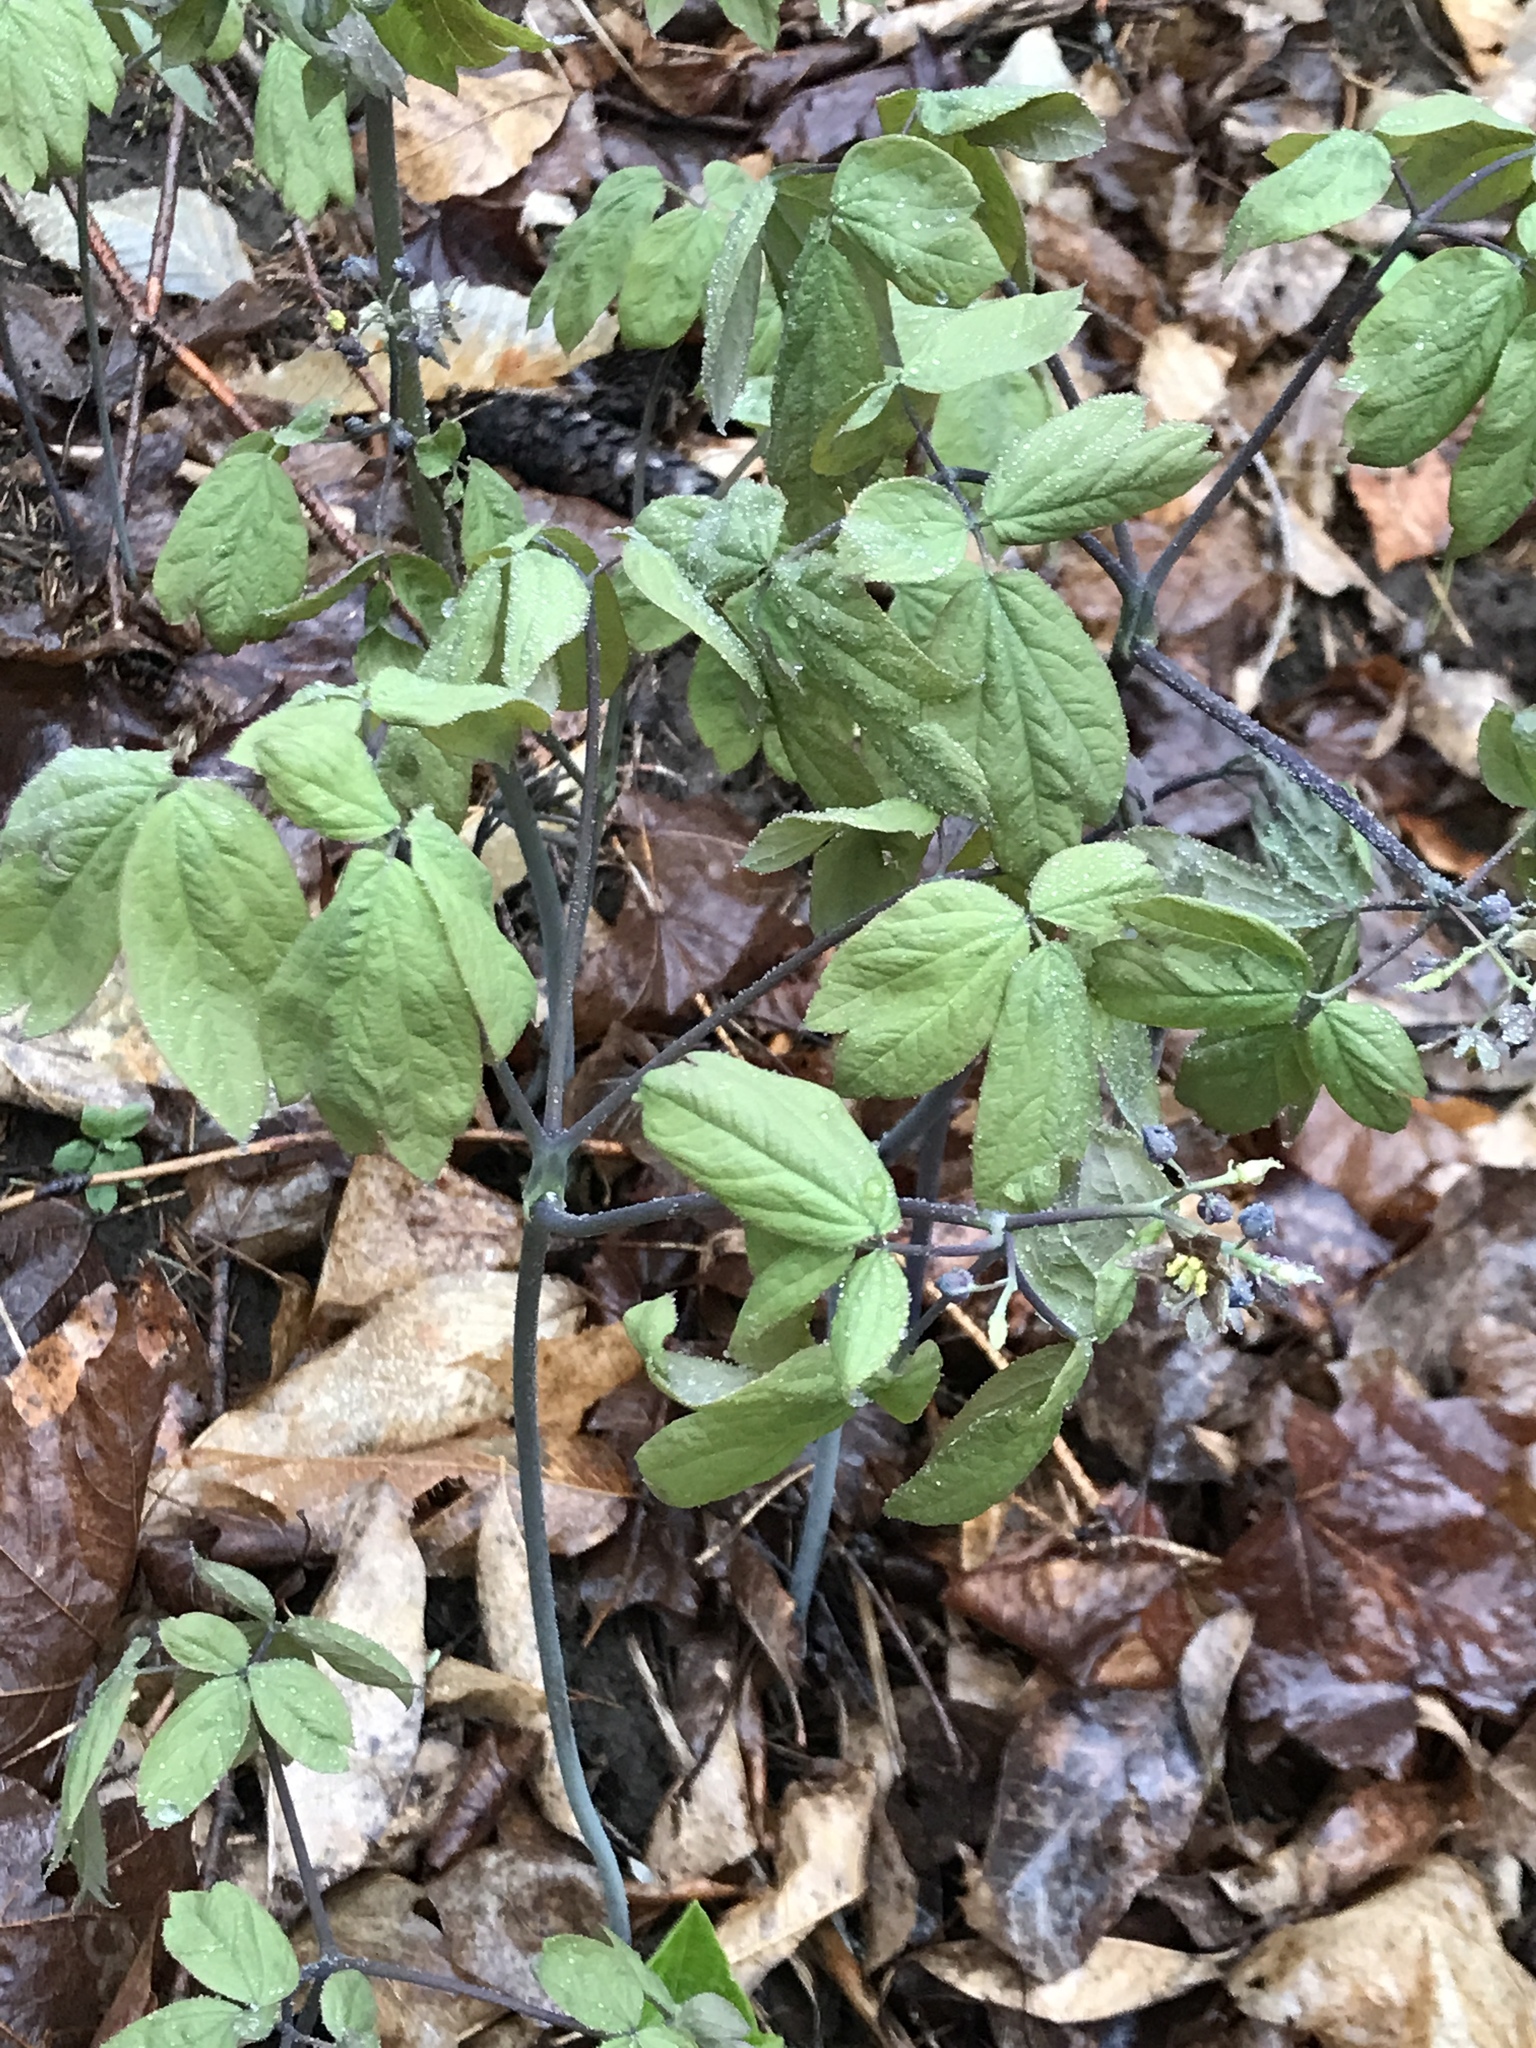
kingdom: Plantae
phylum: Tracheophyta
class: Magnoliopsida
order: Ranunculales
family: Berberidaceae
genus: Caulophyllum
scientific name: Caulophyllum giganteum
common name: Blue cohosh
